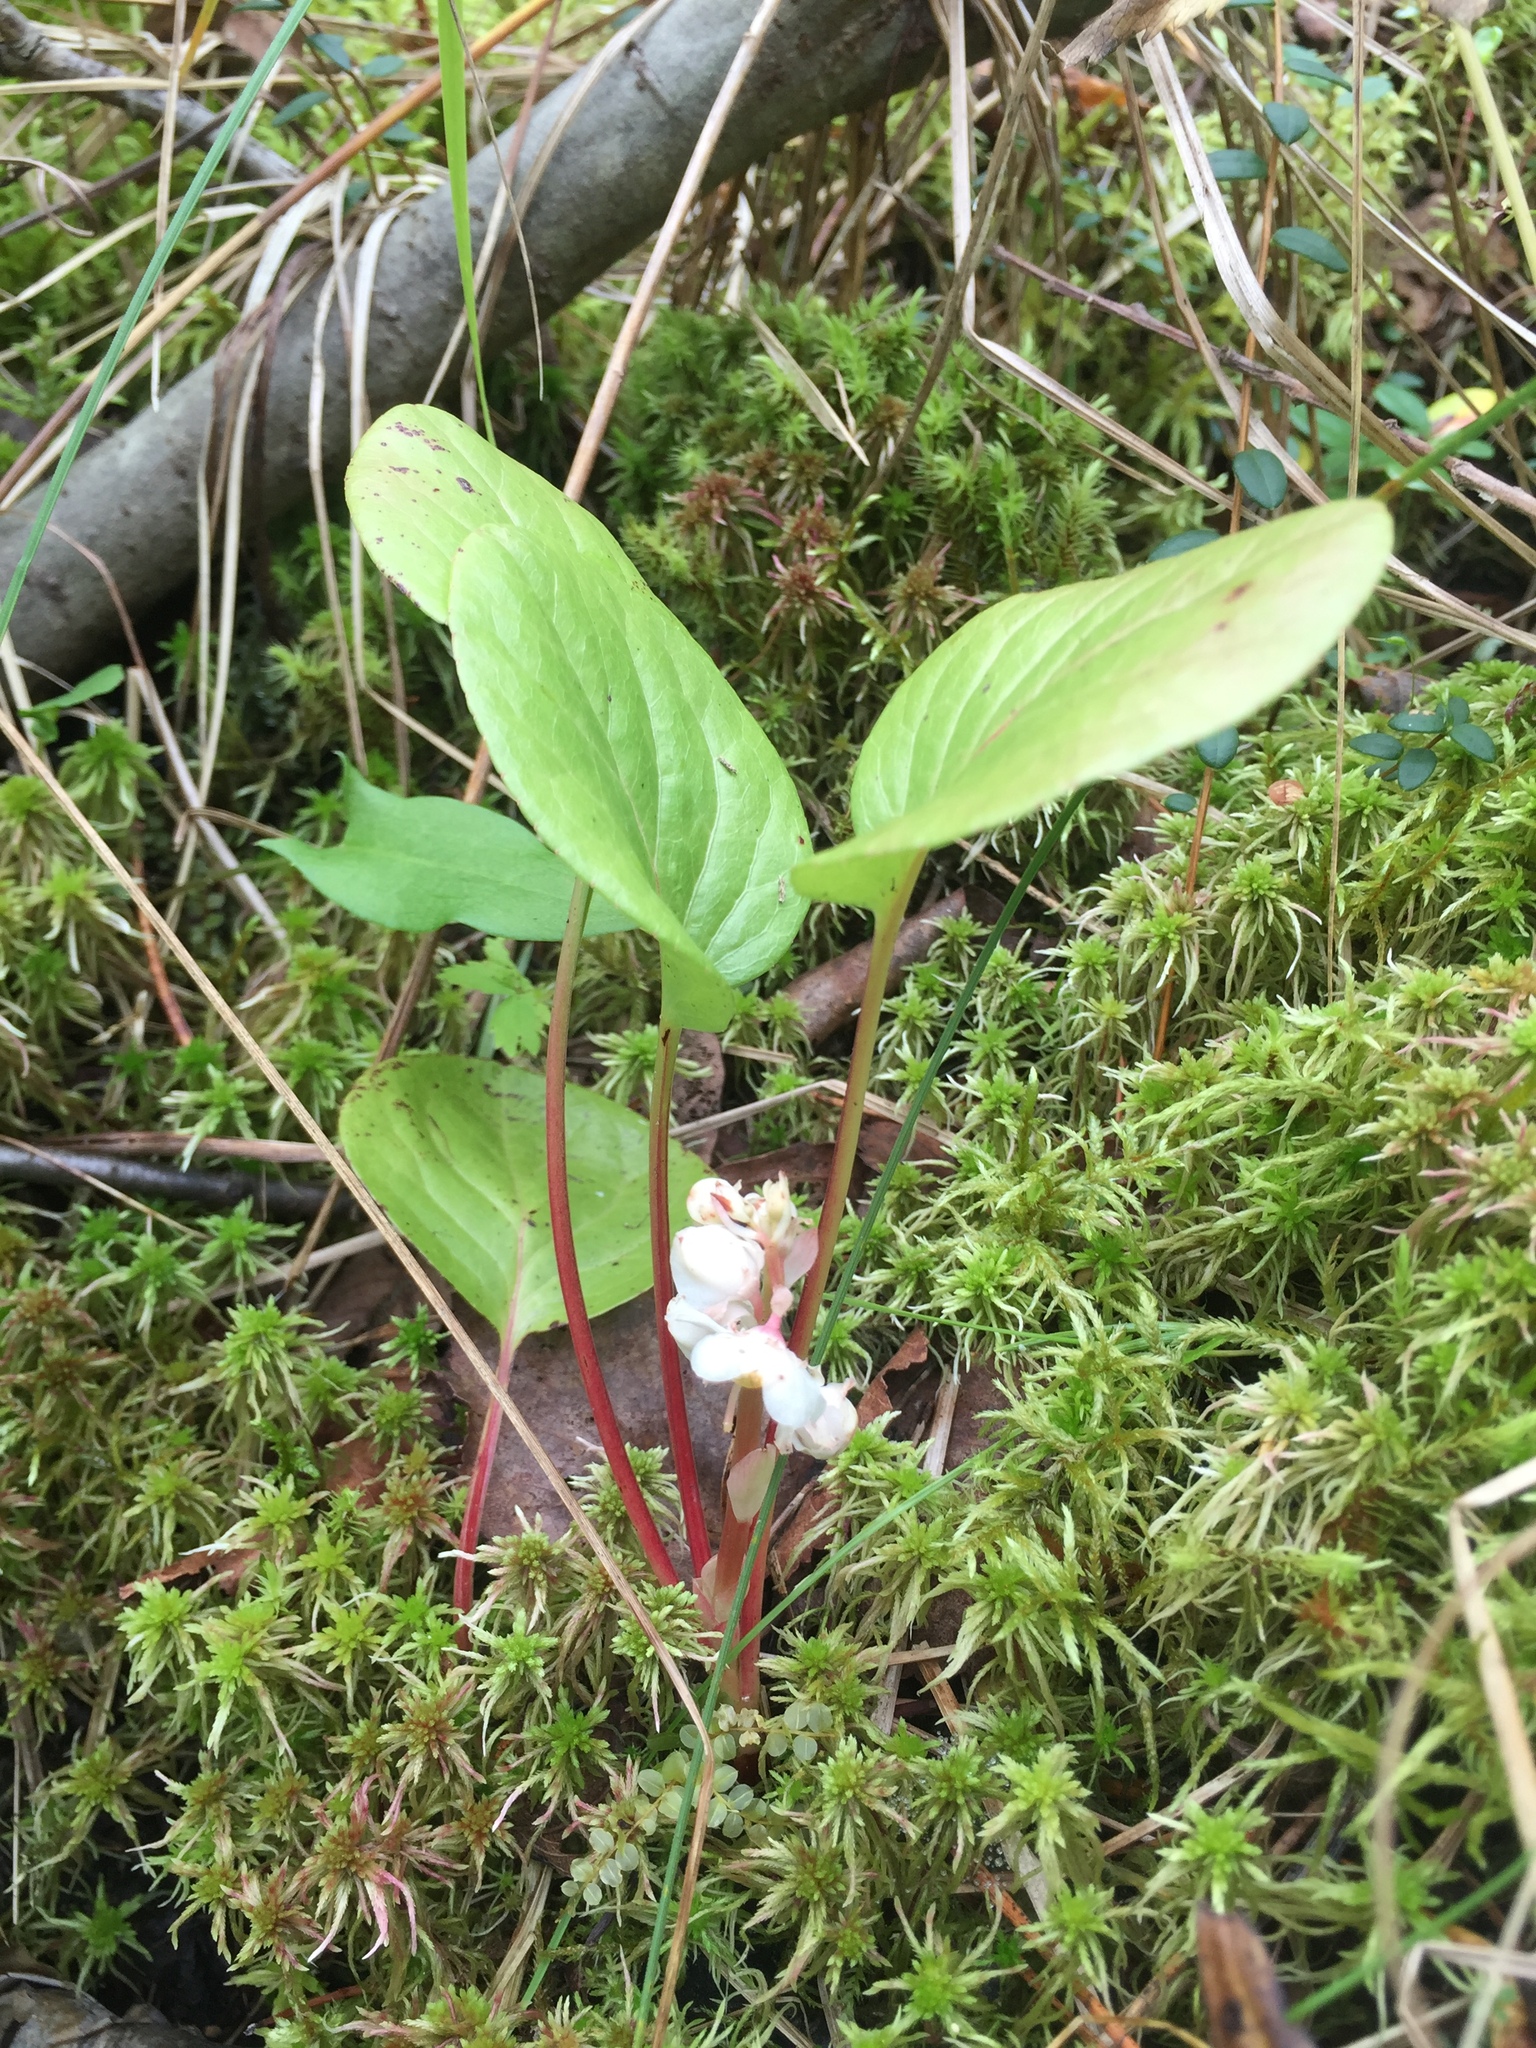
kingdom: Plantae
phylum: Tracheophyta
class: Magnoliopsida
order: Ericales
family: Ericaceae
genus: Pyrola
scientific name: Pyrola rotundifolia
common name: Round-leaved wintergreen
